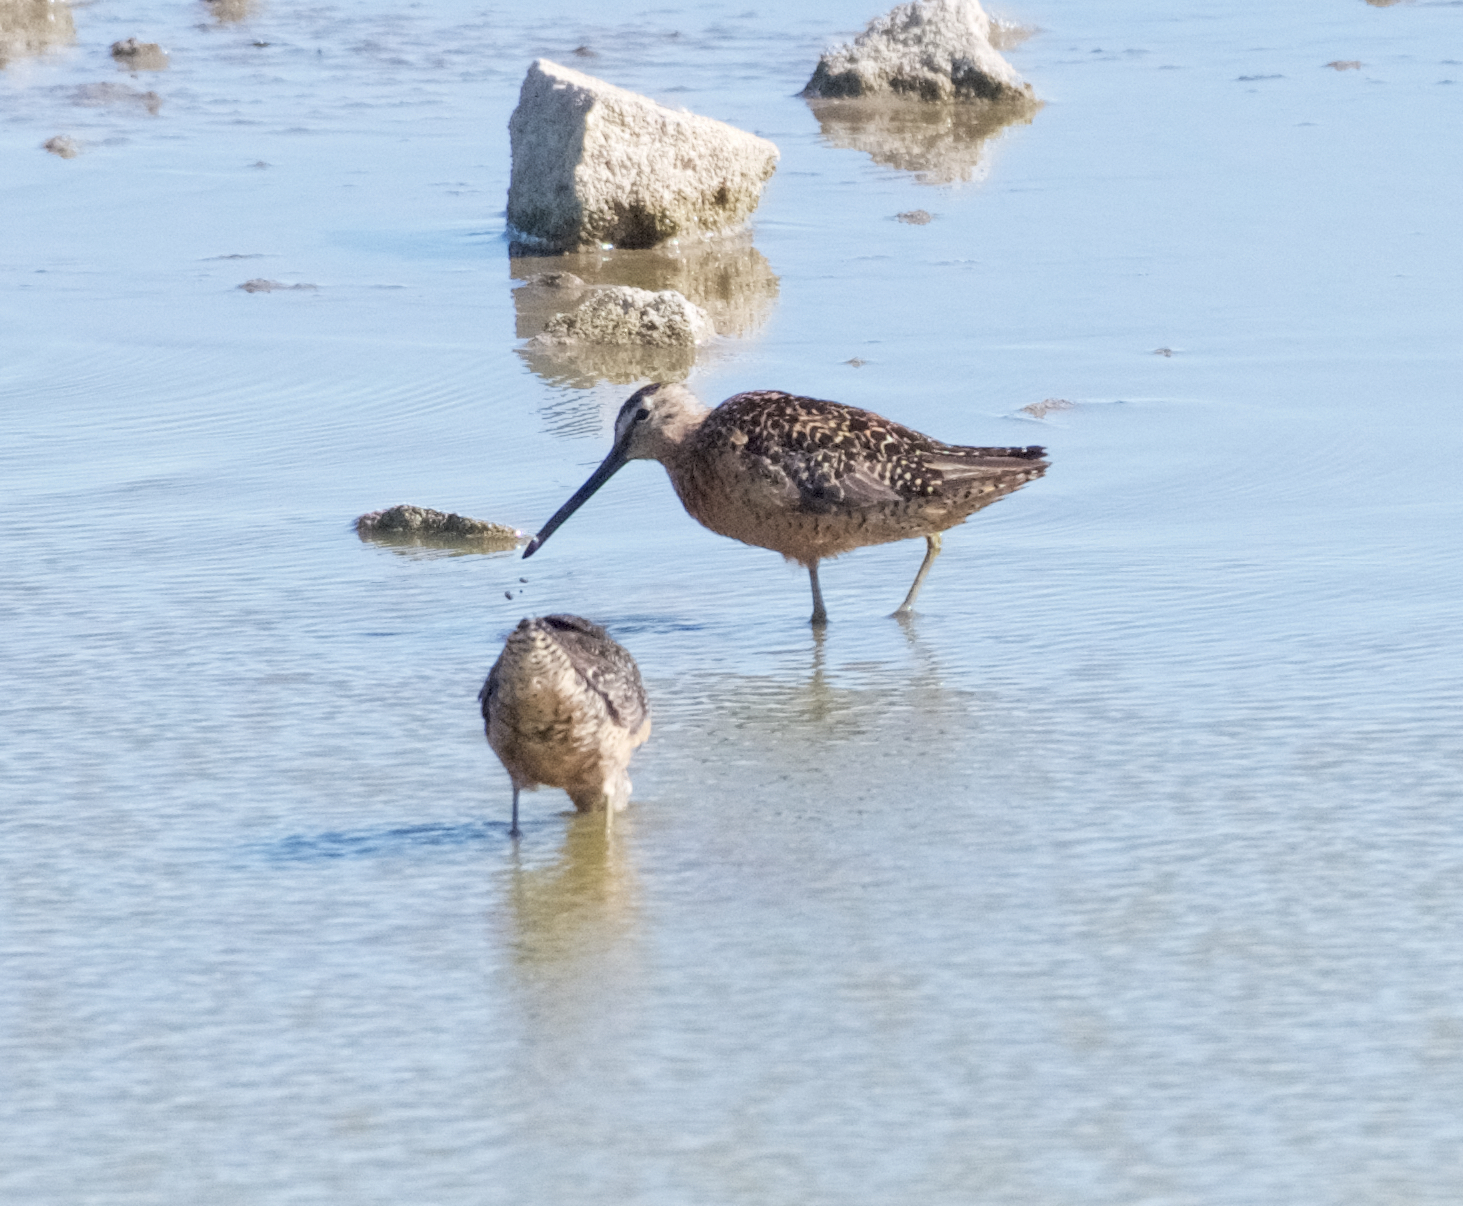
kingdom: Animalia
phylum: Chordata
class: Aves
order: Charadriiformes
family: Scolopacidae
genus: Limnodromus
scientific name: Limnodromus scolopaceus
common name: Long-billed dowitcher
